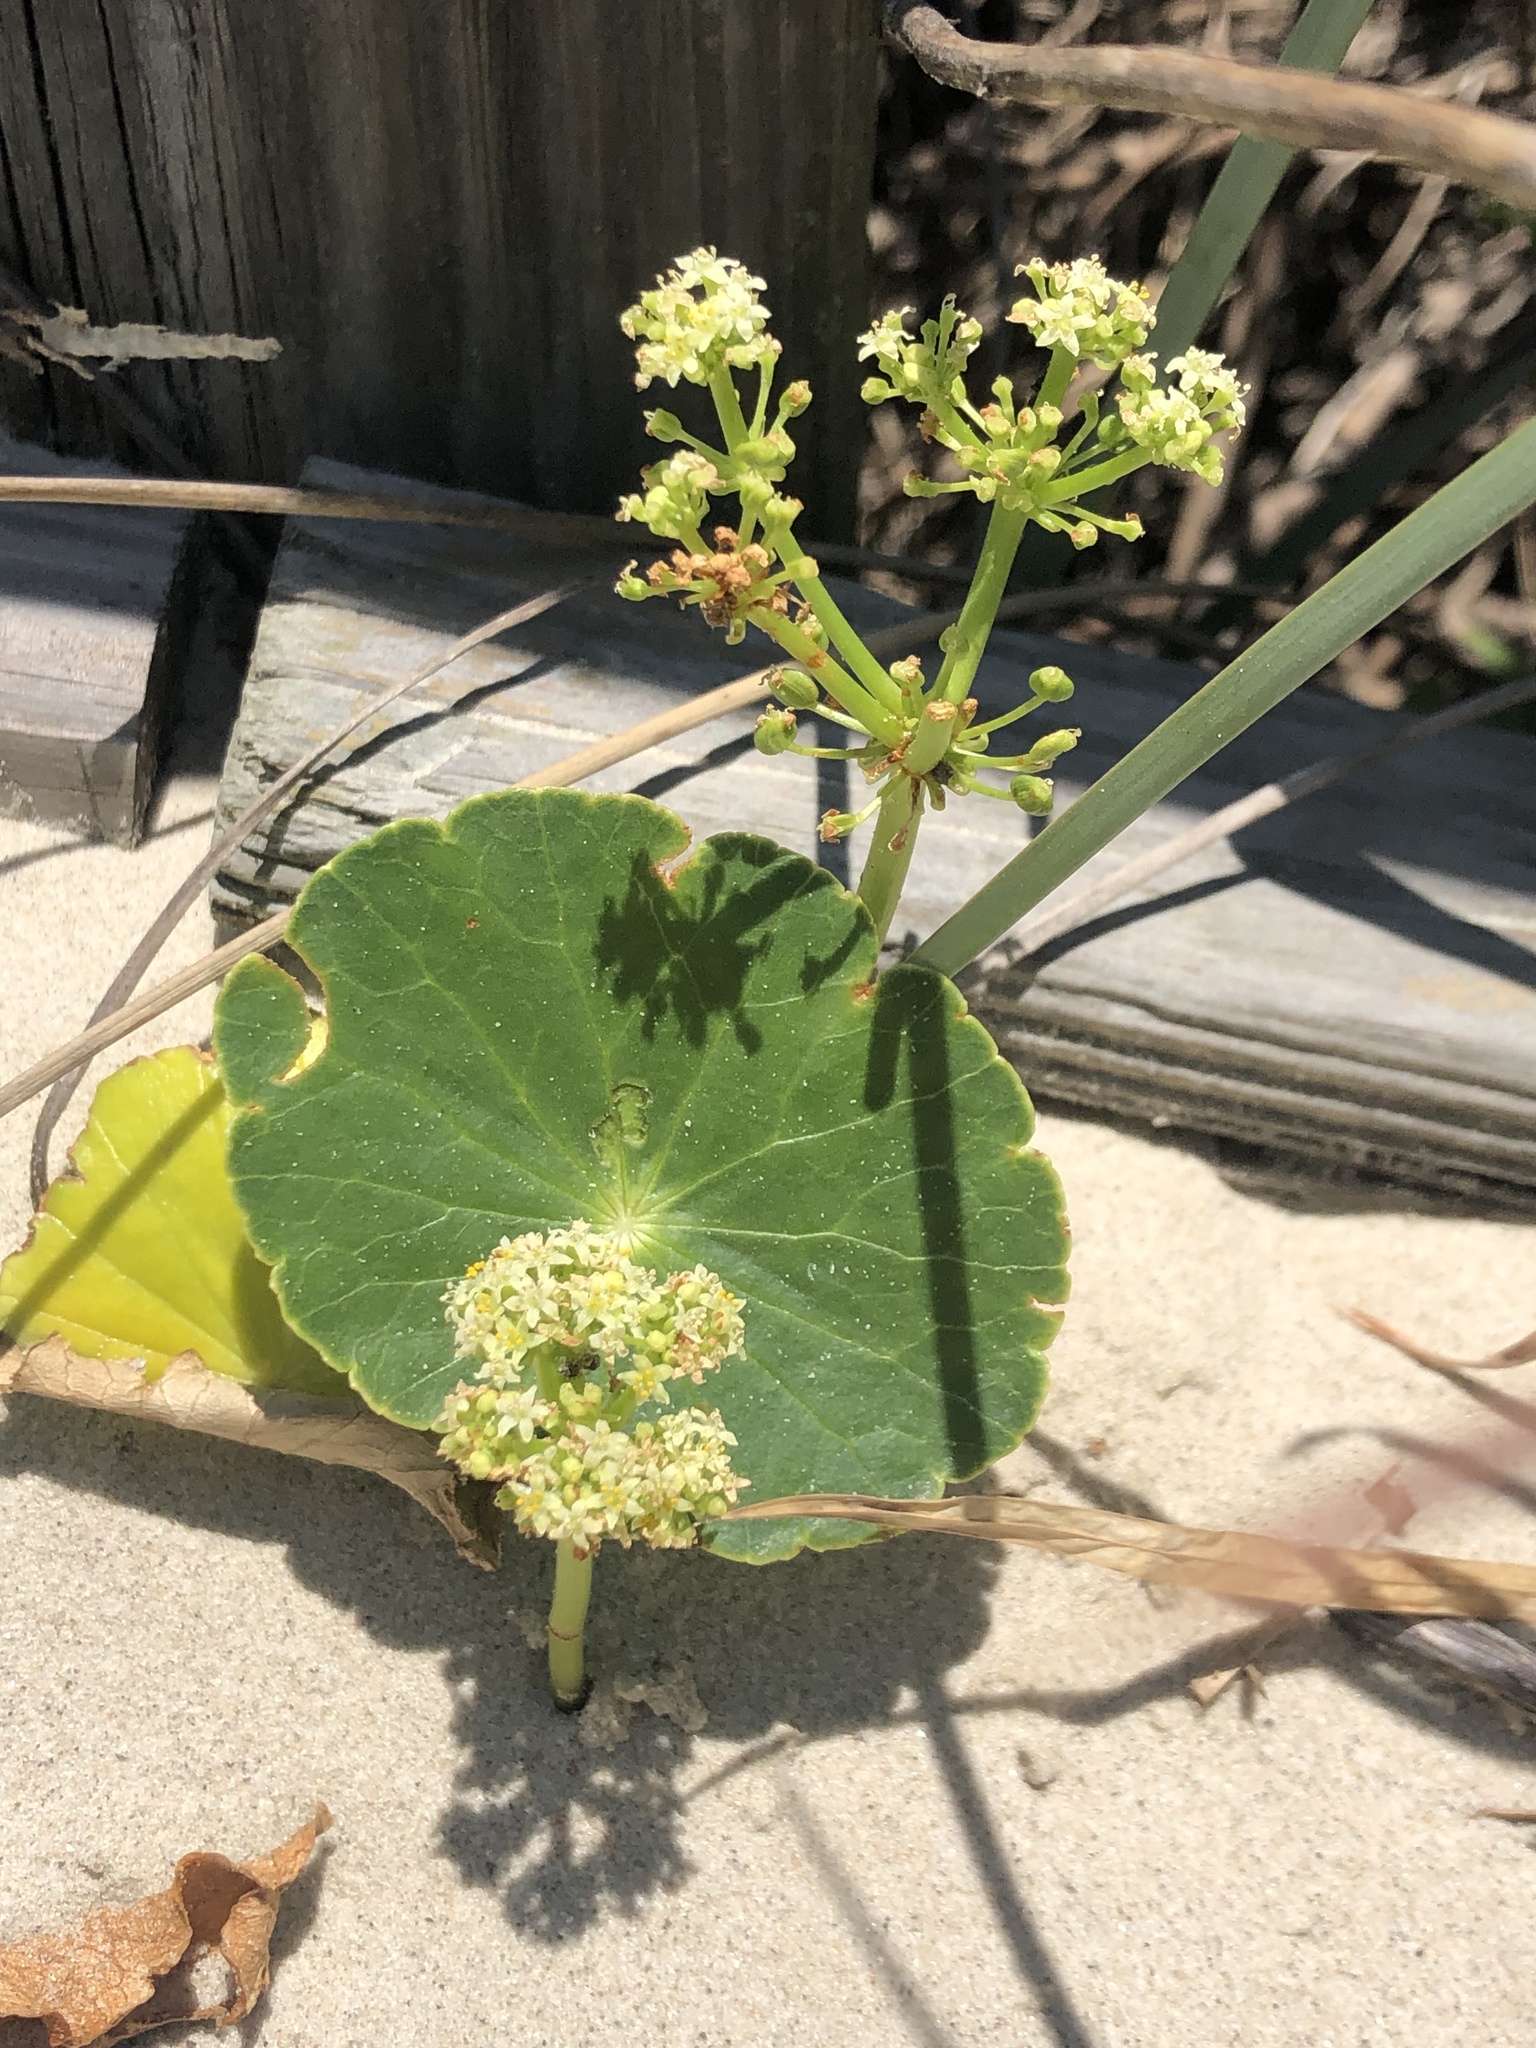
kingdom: Plantae
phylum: Tracheophyta
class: Magnoliopsida
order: Apiales
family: Araliaceae
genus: Hydrocotyle
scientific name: Hydrocotyle bonariensis
